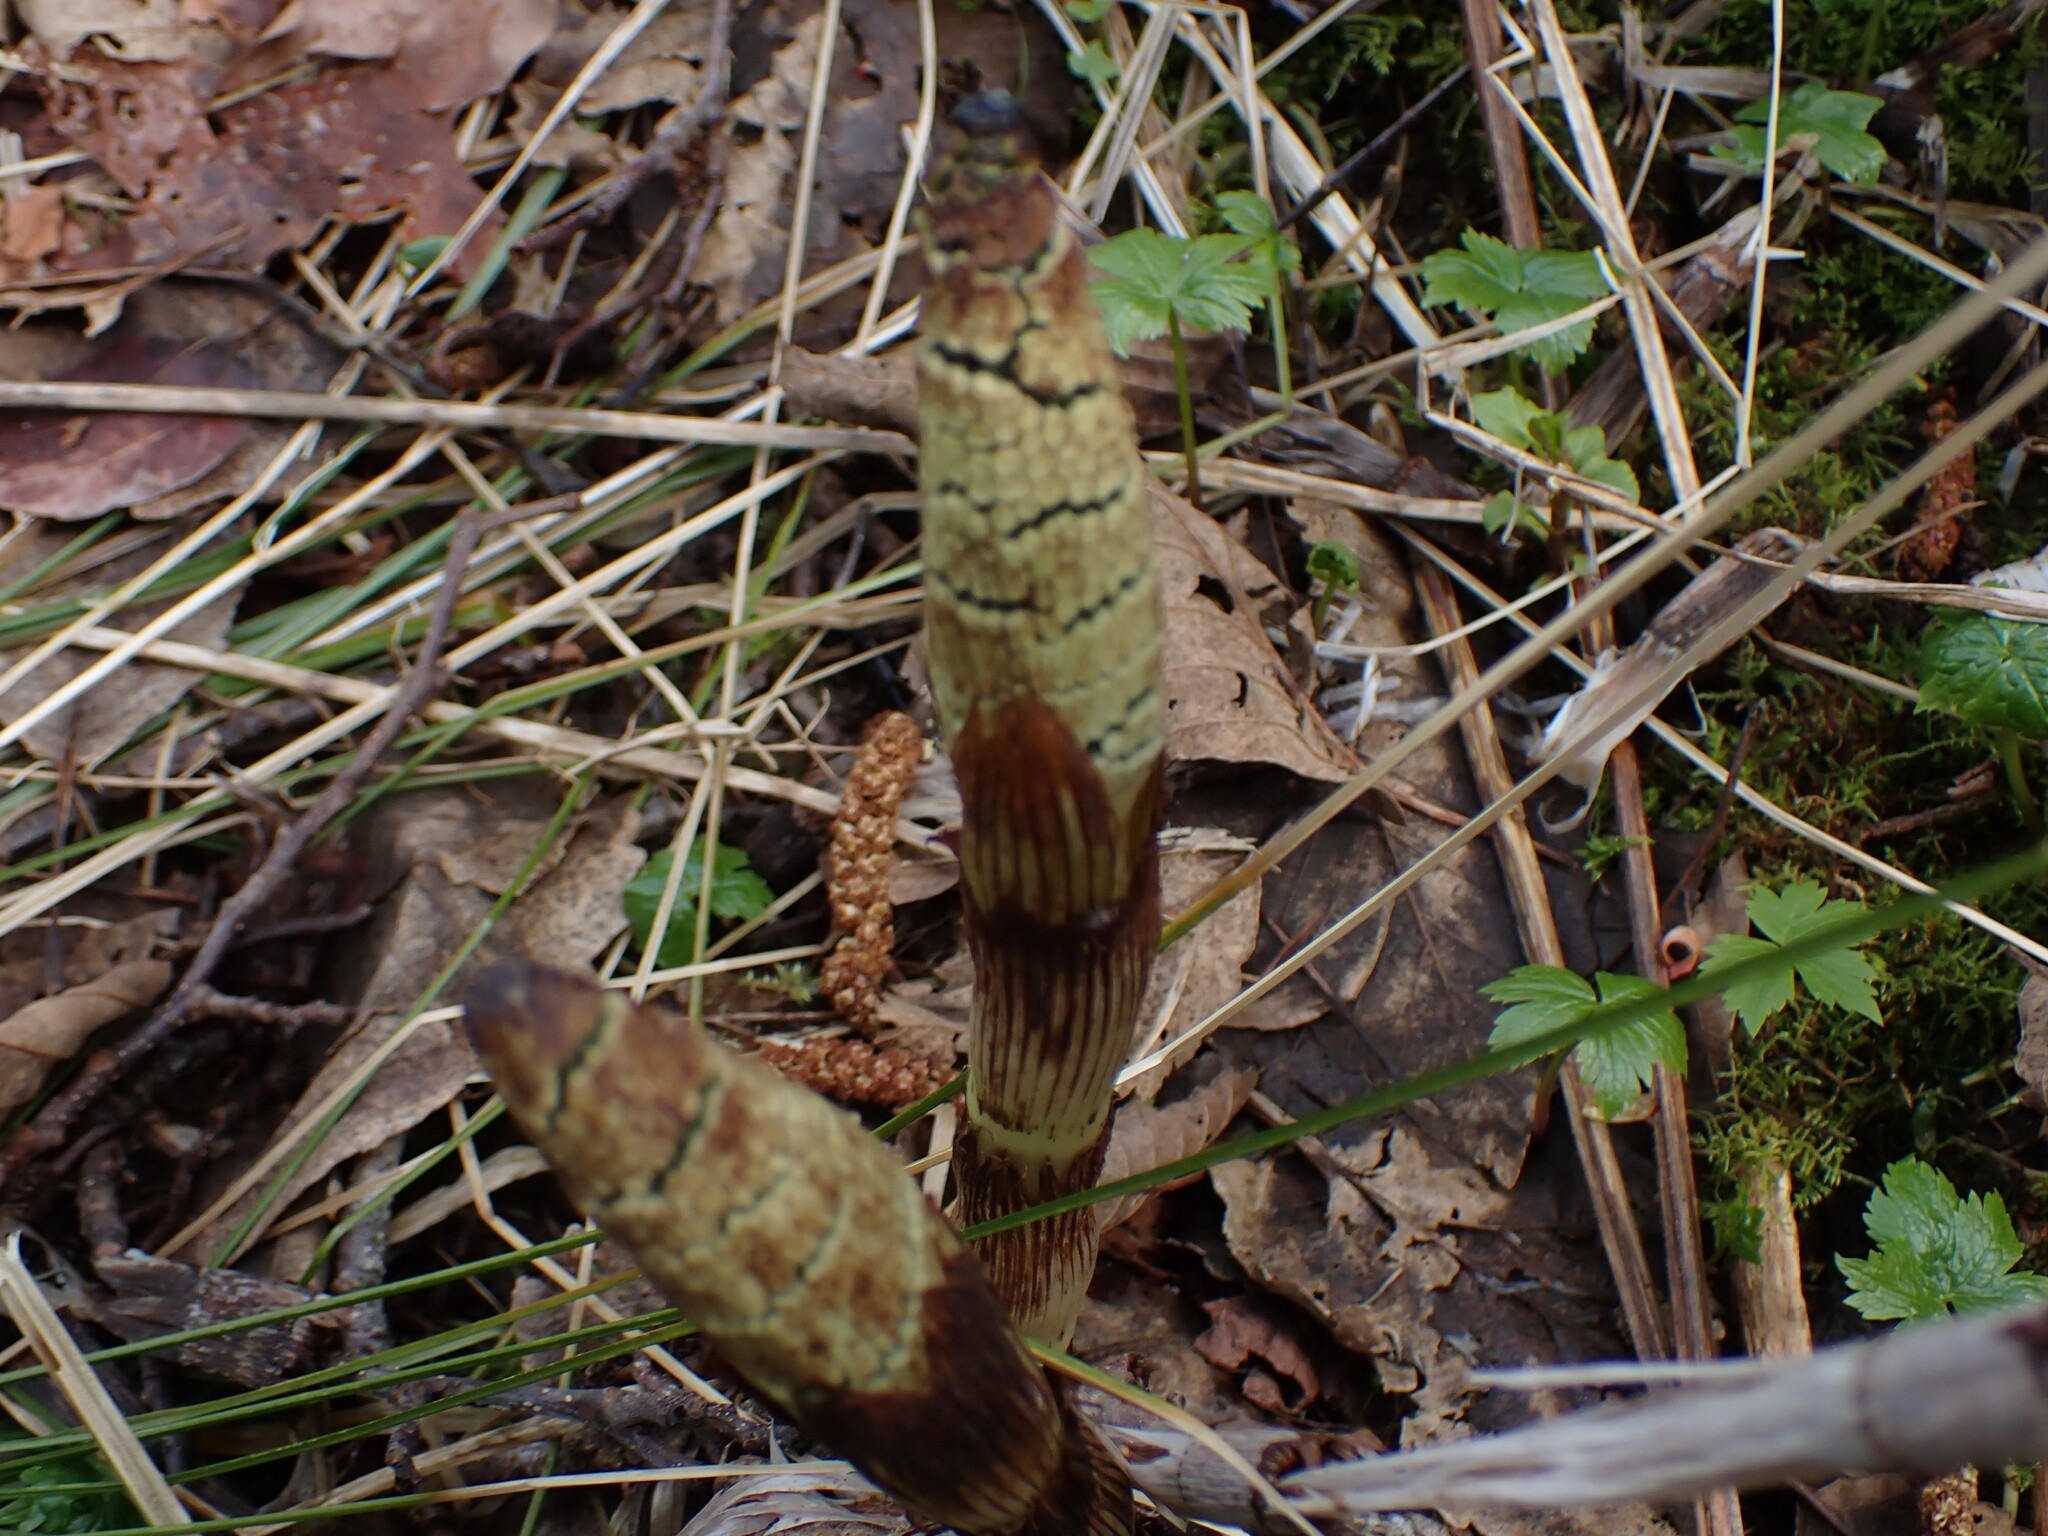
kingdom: Plantae
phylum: Tracheophyta
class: Polypodiopsida
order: Equisetales
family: Equisetaceae
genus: Equisetum
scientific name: Equisetum telmateia
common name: Great horsetail
